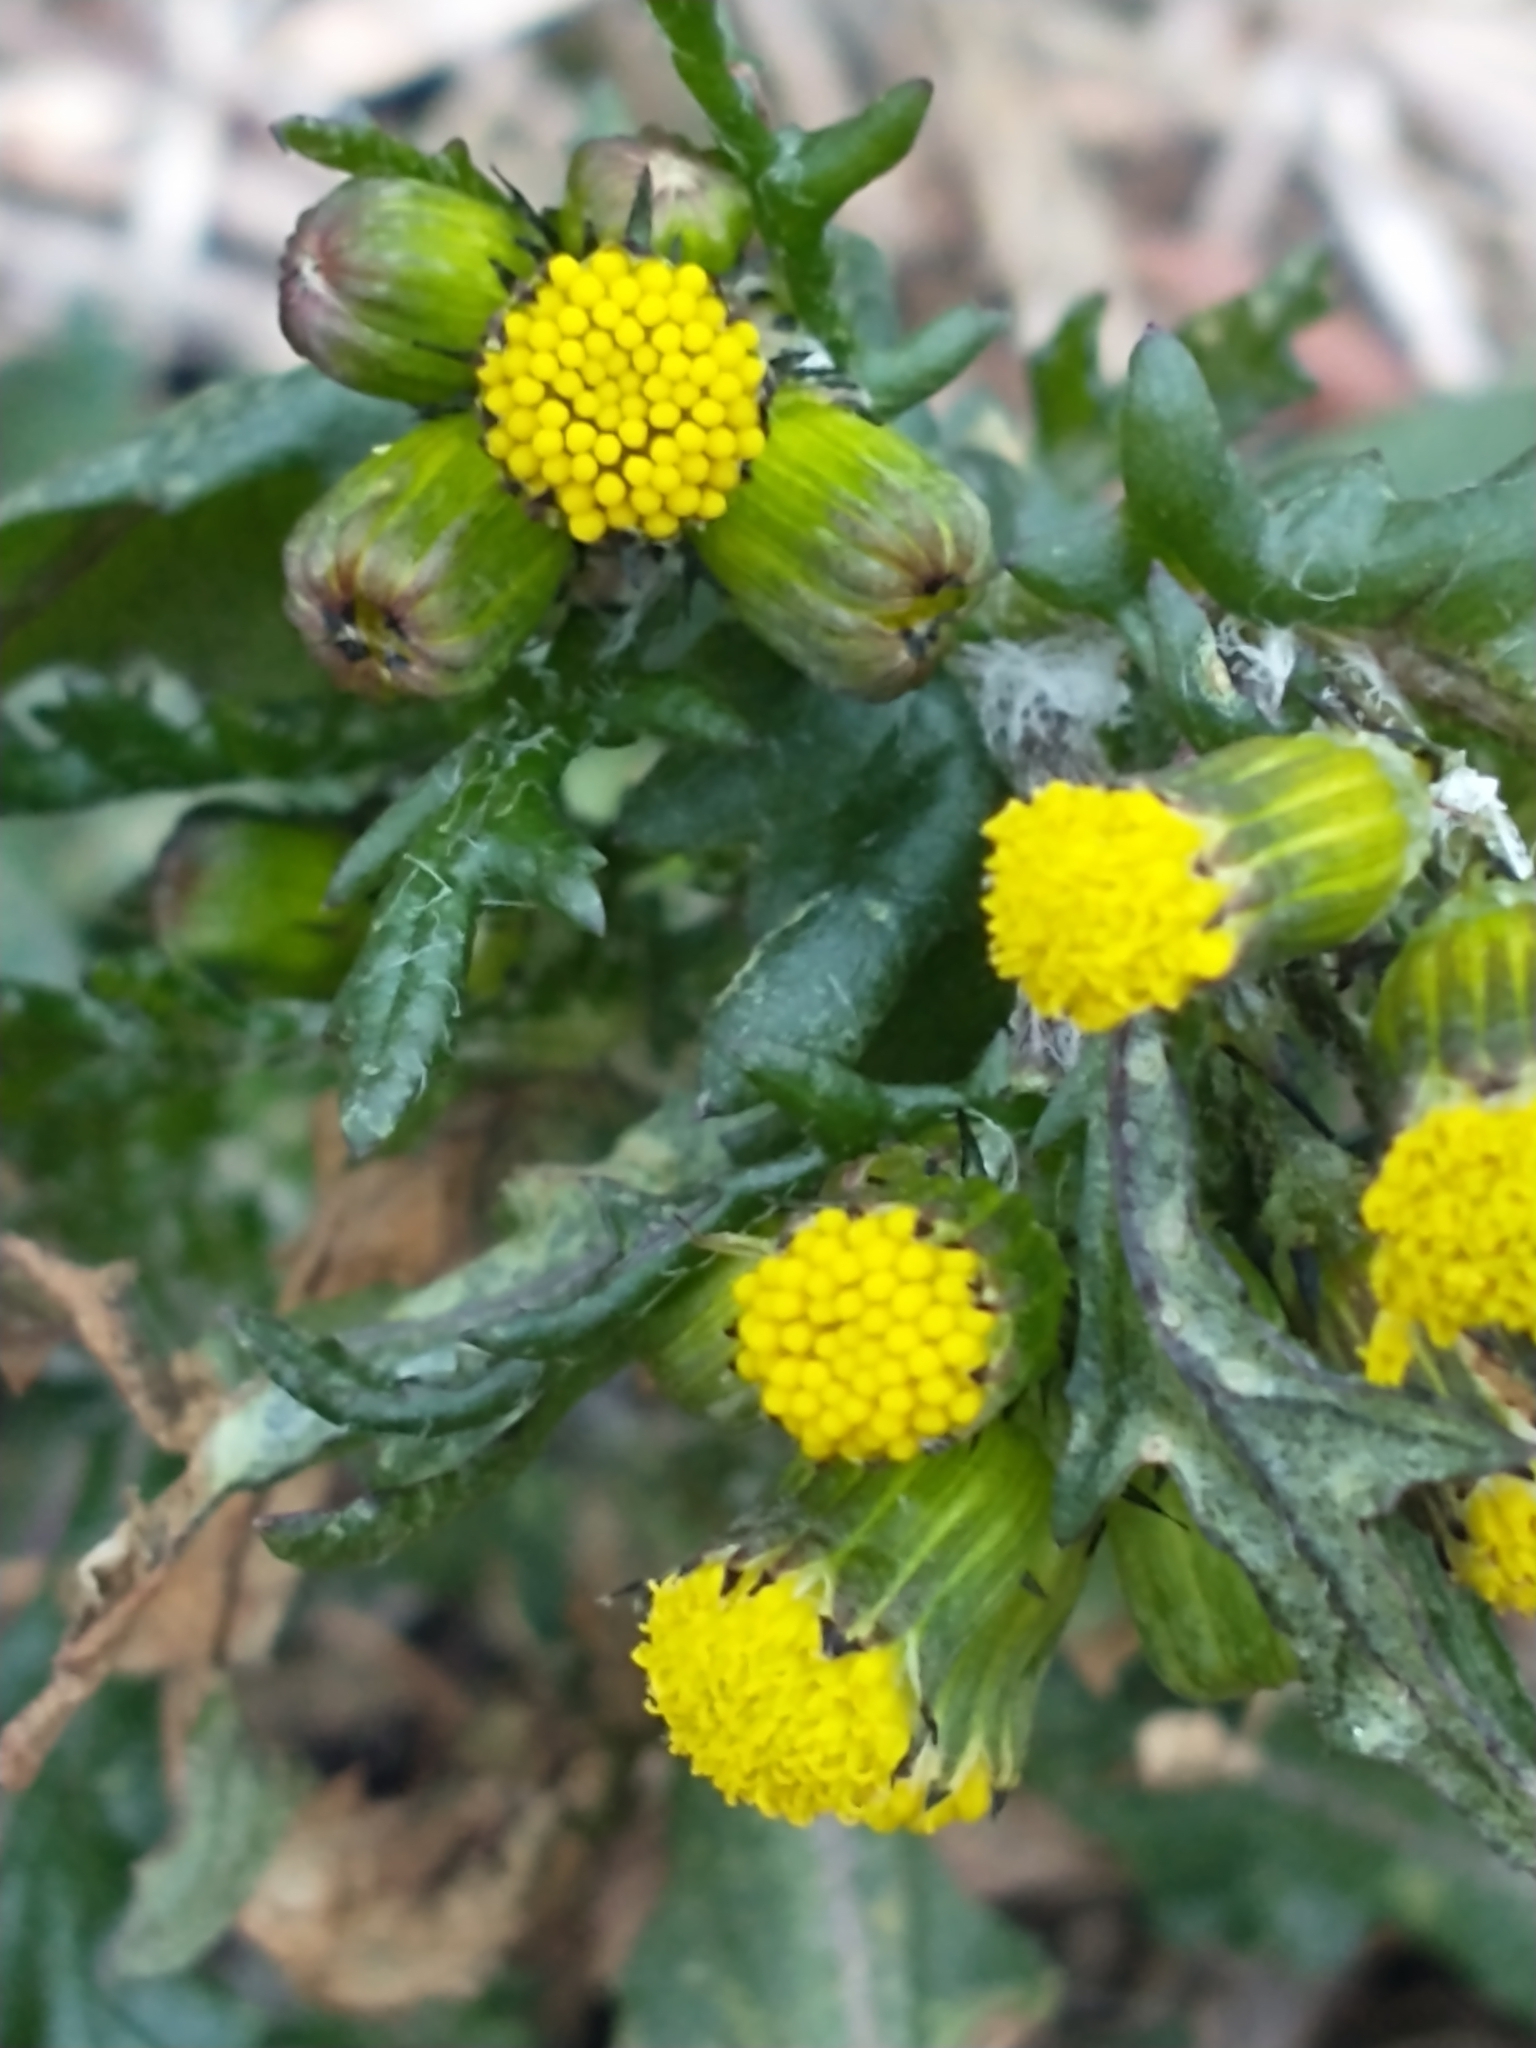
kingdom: Plantae
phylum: Tracheophyta
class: Magnoliopsida
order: Asterales
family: Asteraceae
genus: Senecio
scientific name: Senecio vulgaris
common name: Old-man-in-the-spring
